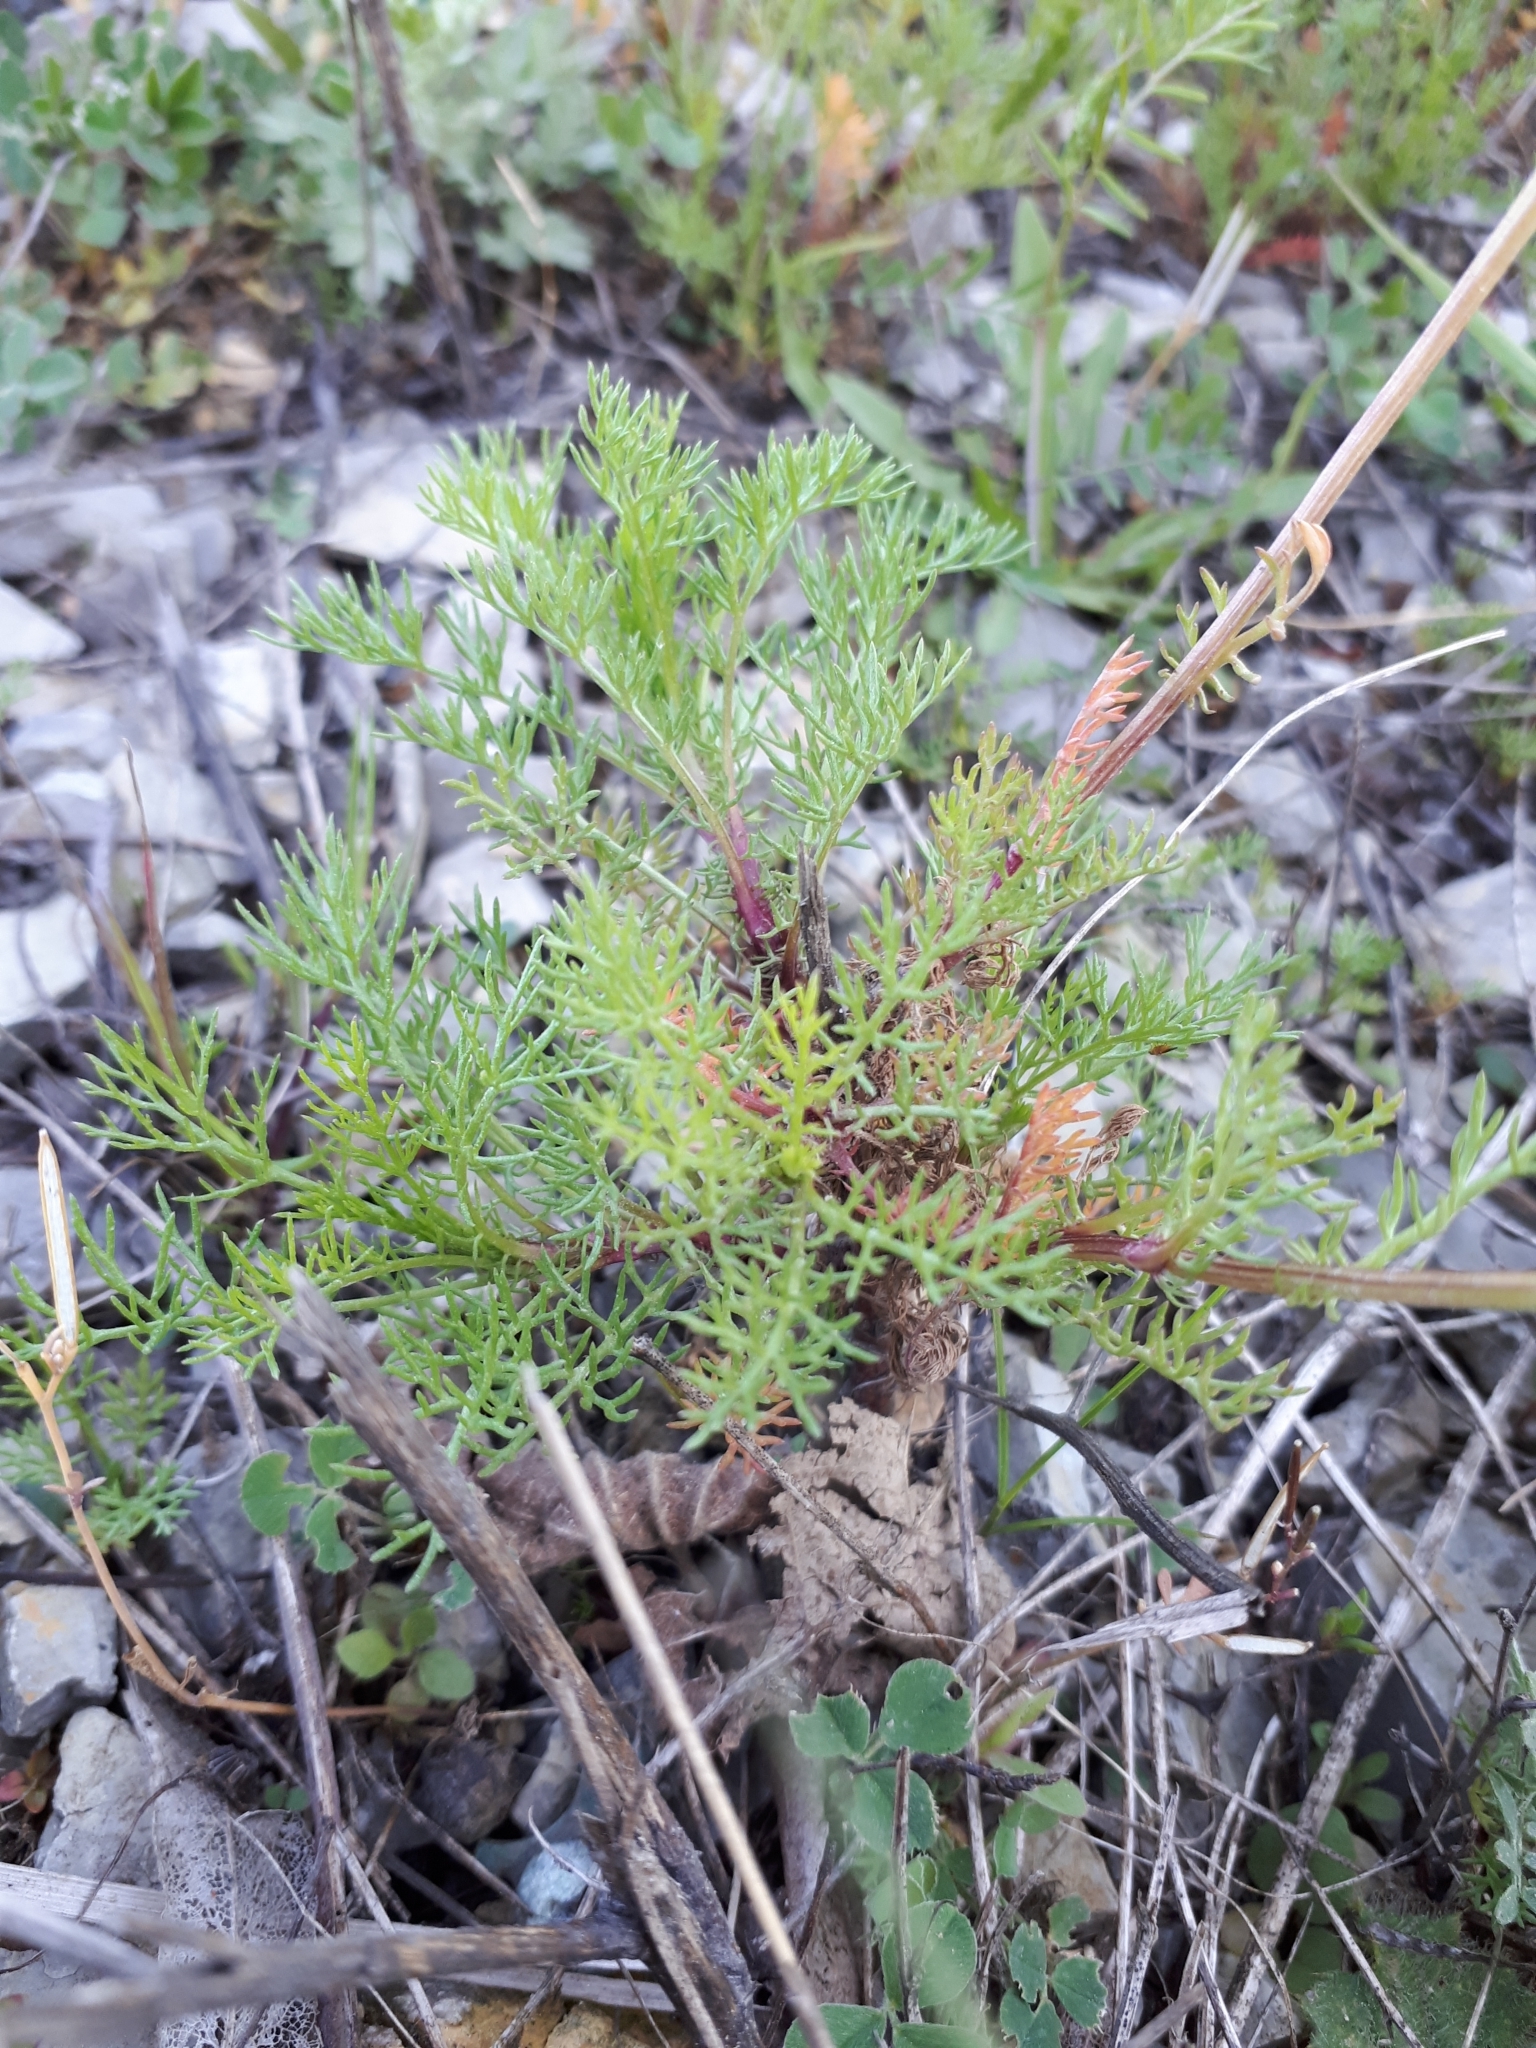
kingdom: Plantae
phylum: Tracheophyta
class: Magnoliopsida
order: Asterales
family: Asteraceae
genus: Tripleurospermum
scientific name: Tripleurospermum inodorum
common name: Scentless mayweed
